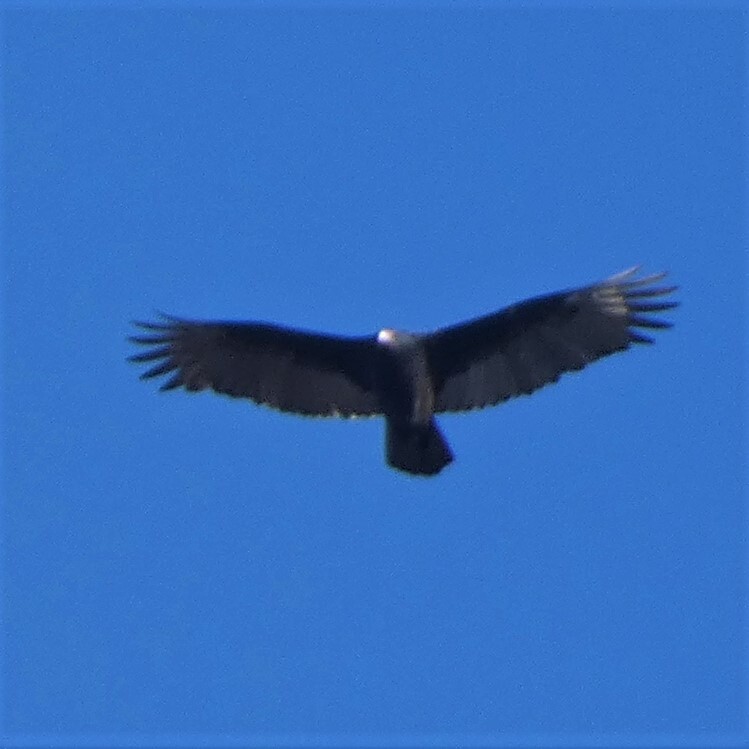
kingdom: Animalia
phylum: Chordata
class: Aves
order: Accipitriformes
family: Cathartidae
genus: Cathartes
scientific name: Cathartes aura
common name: Turkey vulture
